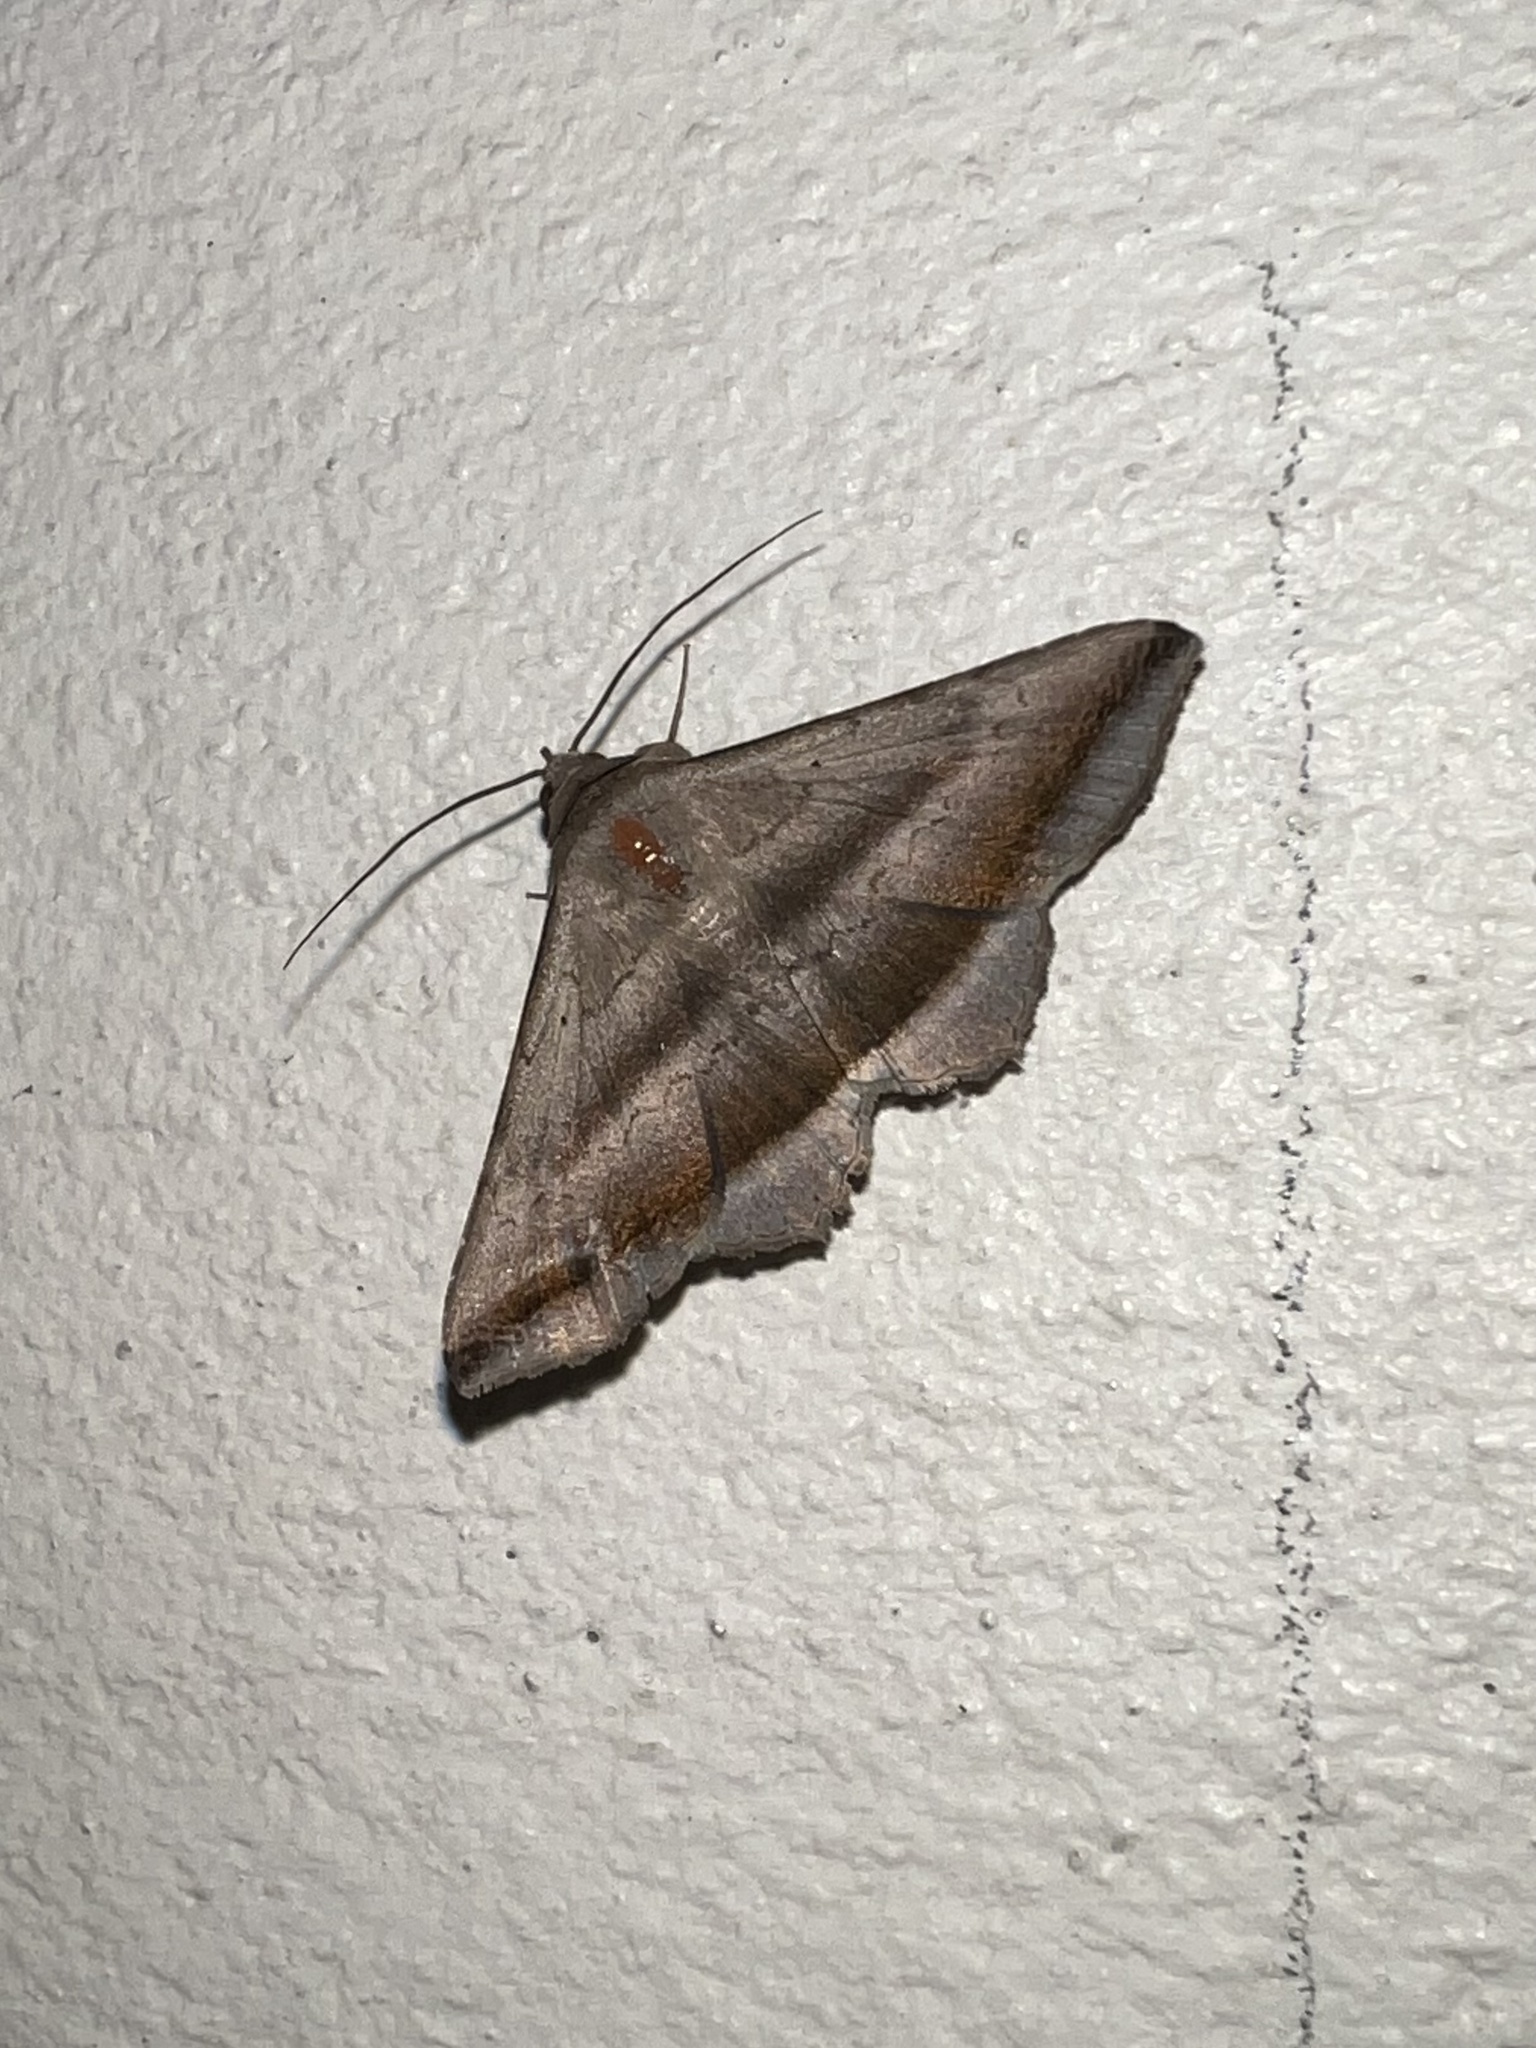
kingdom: Animalia
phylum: Arthropoda
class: Insecta
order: Lepidoptera
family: Erebidae
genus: Lesmone
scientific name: Lesmone formularis
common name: Lesmone moth
